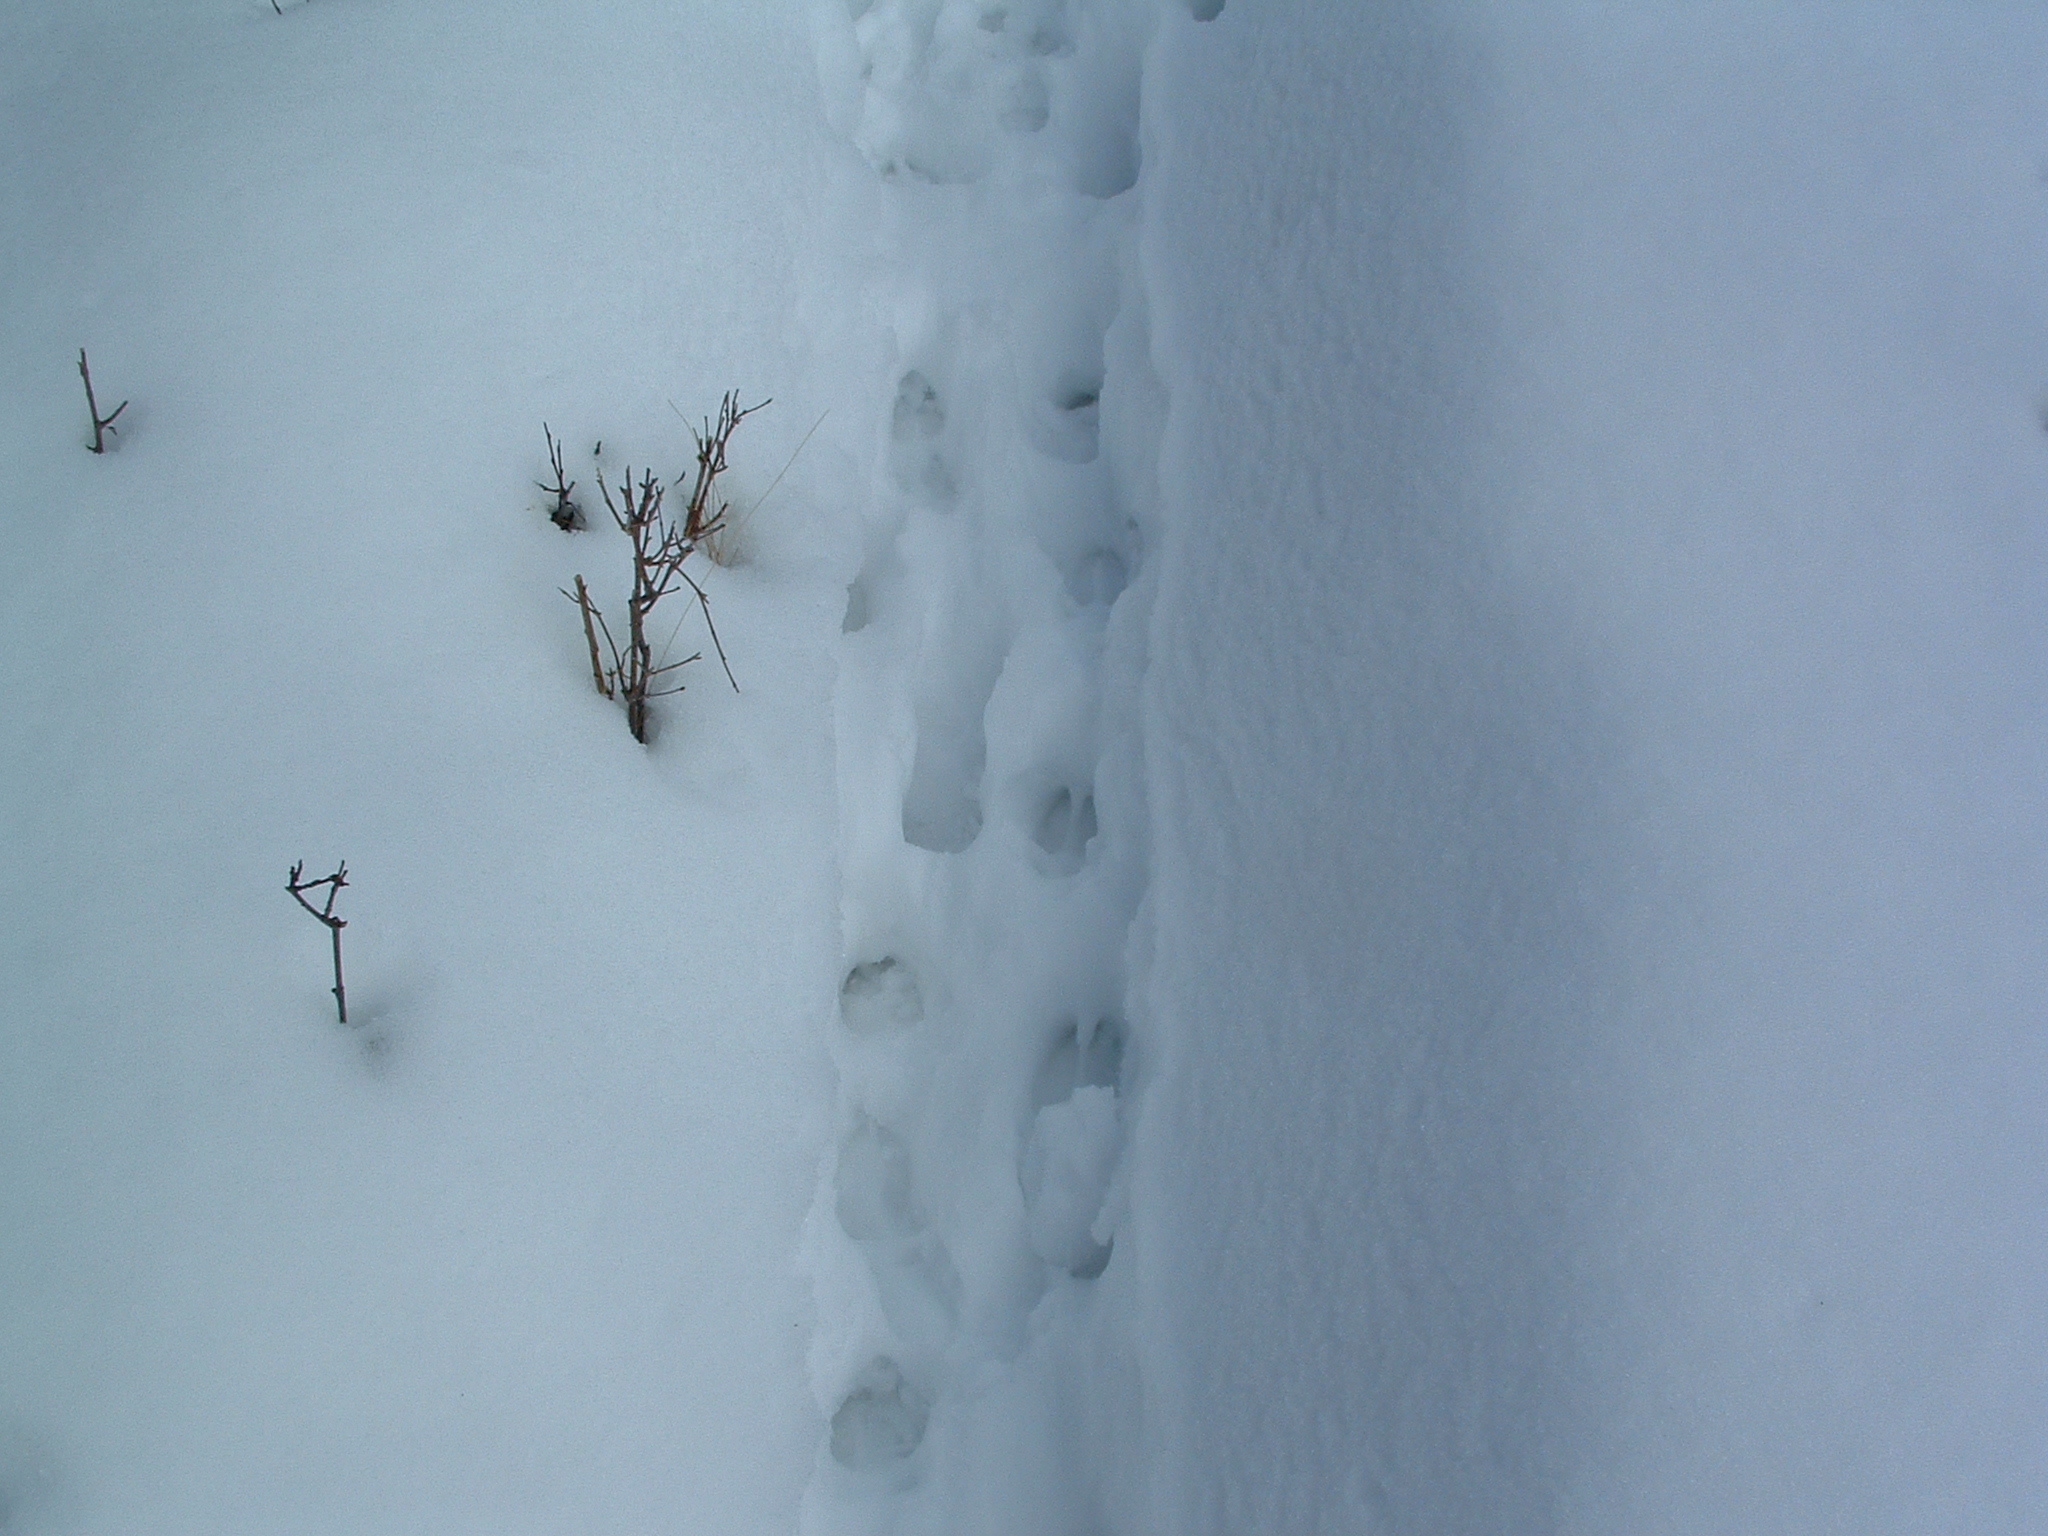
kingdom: Animalia
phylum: Chordata
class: Mammalia
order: Artiodactyla
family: Cervidae
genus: Odocoileus
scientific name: Odocoileus virginianus
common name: White-tailed deer
